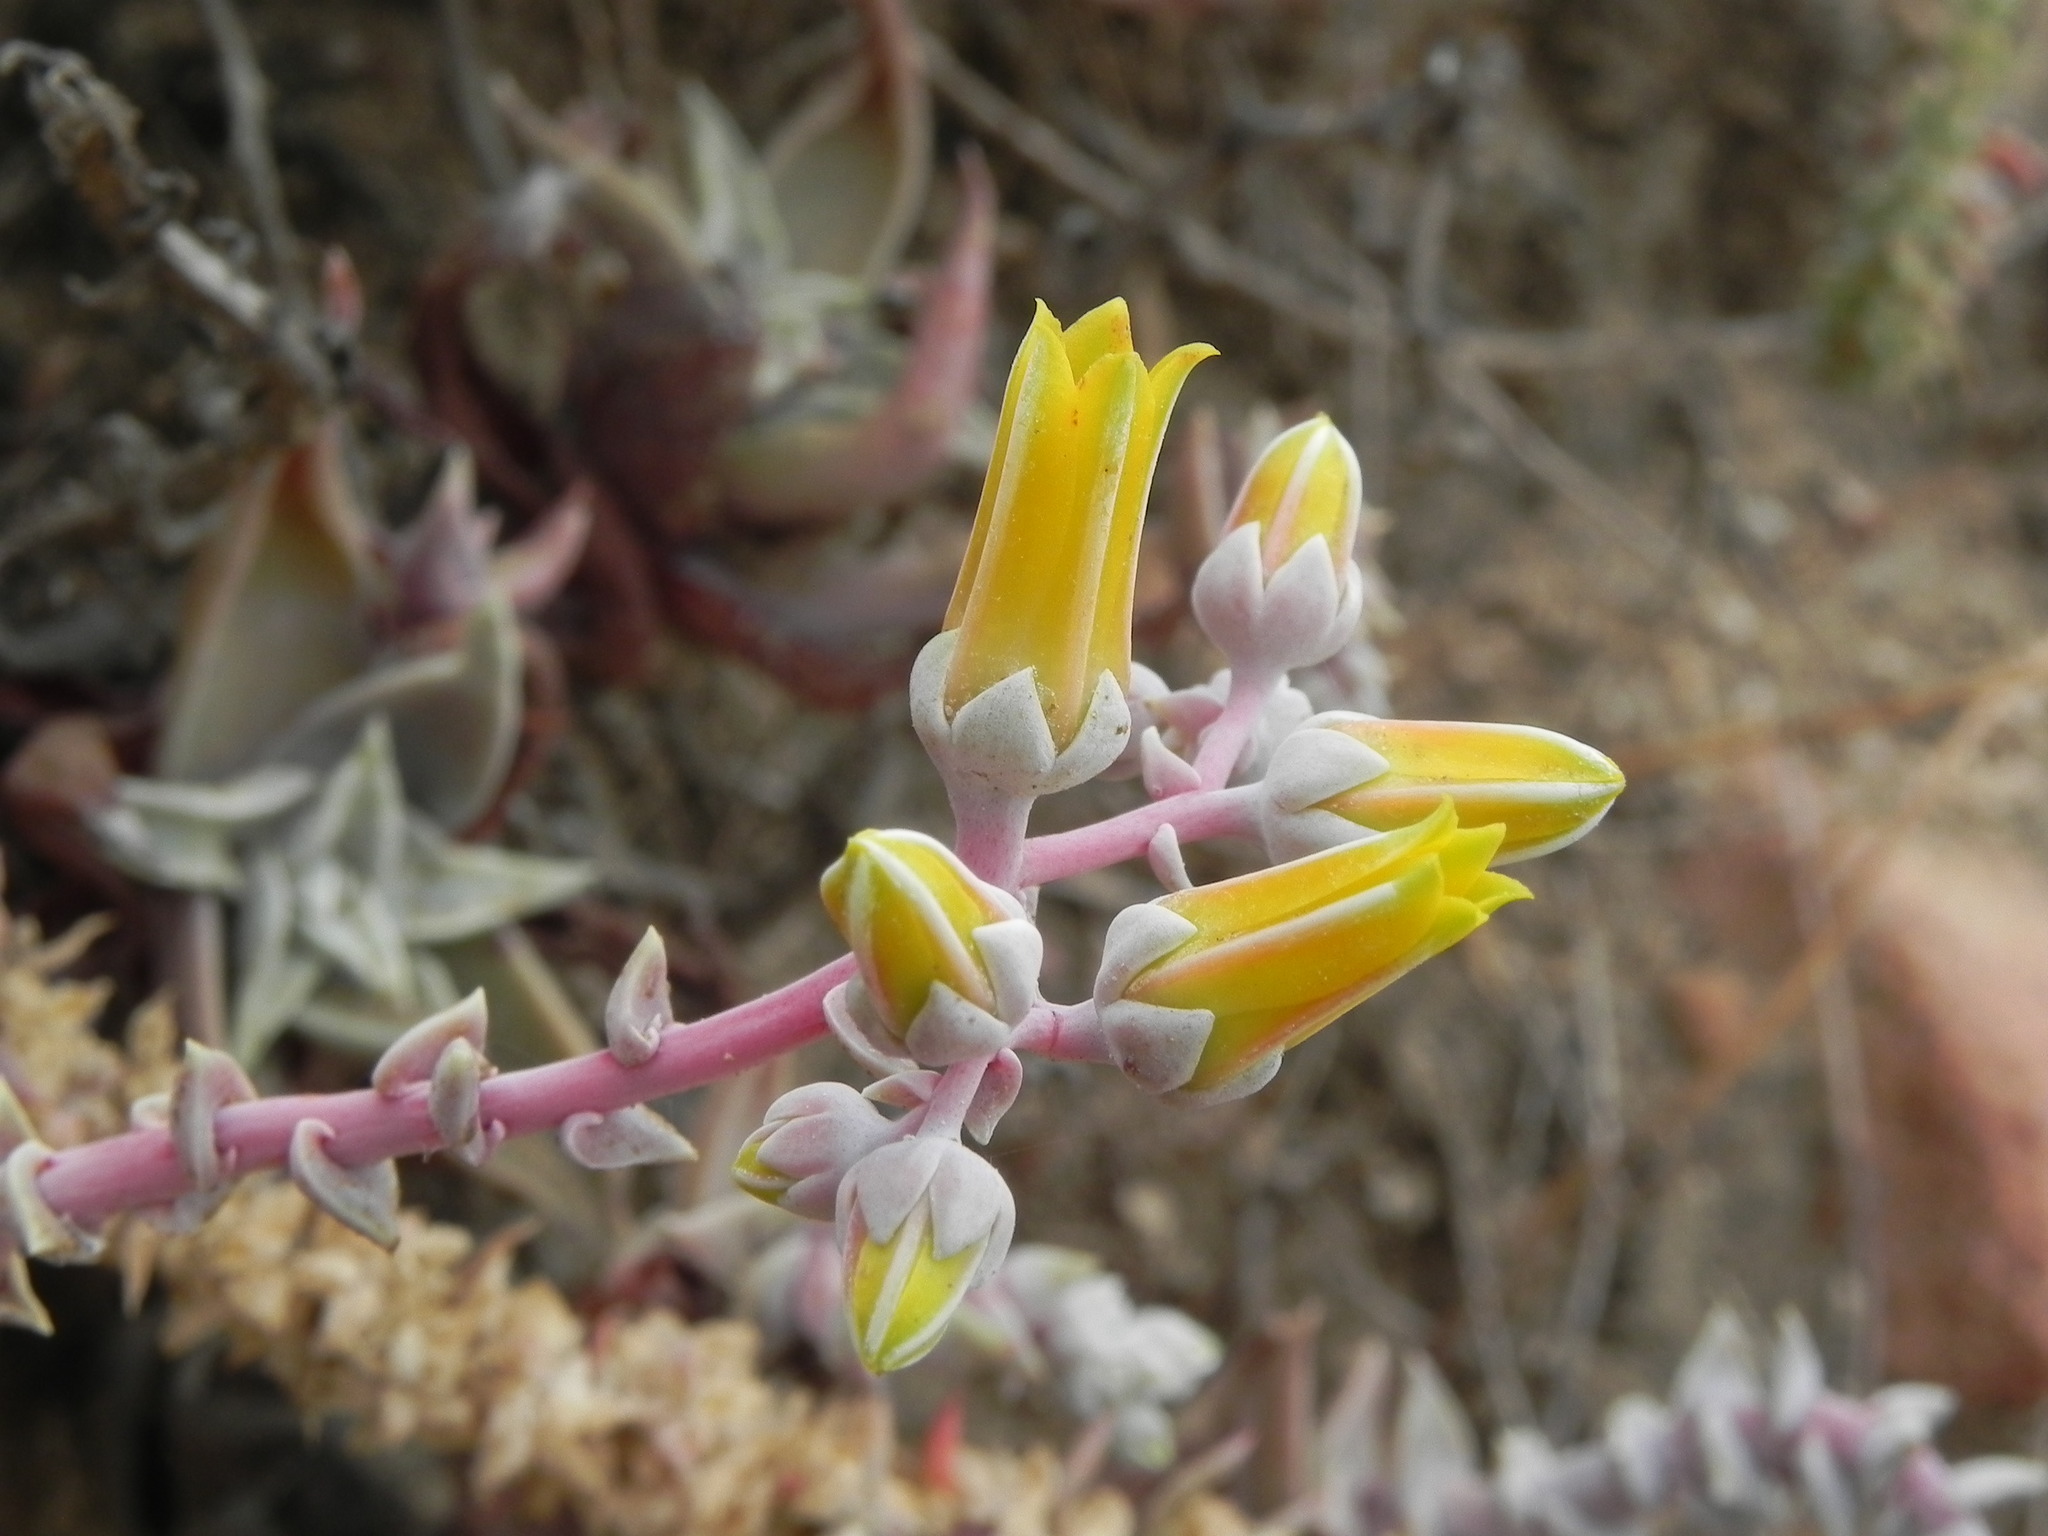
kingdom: Plantae
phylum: Tracheophyta
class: Magnoliopsida
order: Saxifragales
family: Crassulaceae
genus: Dudleya
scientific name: Dudleya caespitosa
